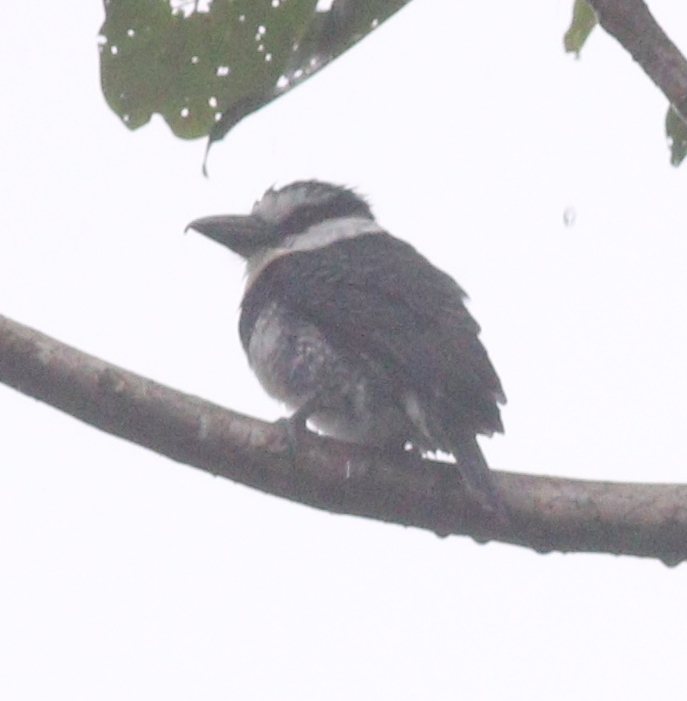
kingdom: Animalia
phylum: Chordata
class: Aves
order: Piciformes
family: Bucconidae
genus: Notharchus
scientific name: Notharchus hyperrhynchus
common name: White-necked puffbird
